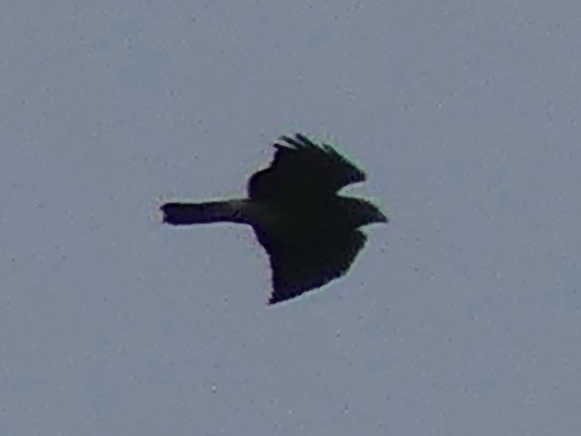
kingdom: Animalia
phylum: Chordata
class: Aves
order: Accipitriformes
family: Accipitridae
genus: Buteo
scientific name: Buteo platypterus
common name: Broad-winged hawk
